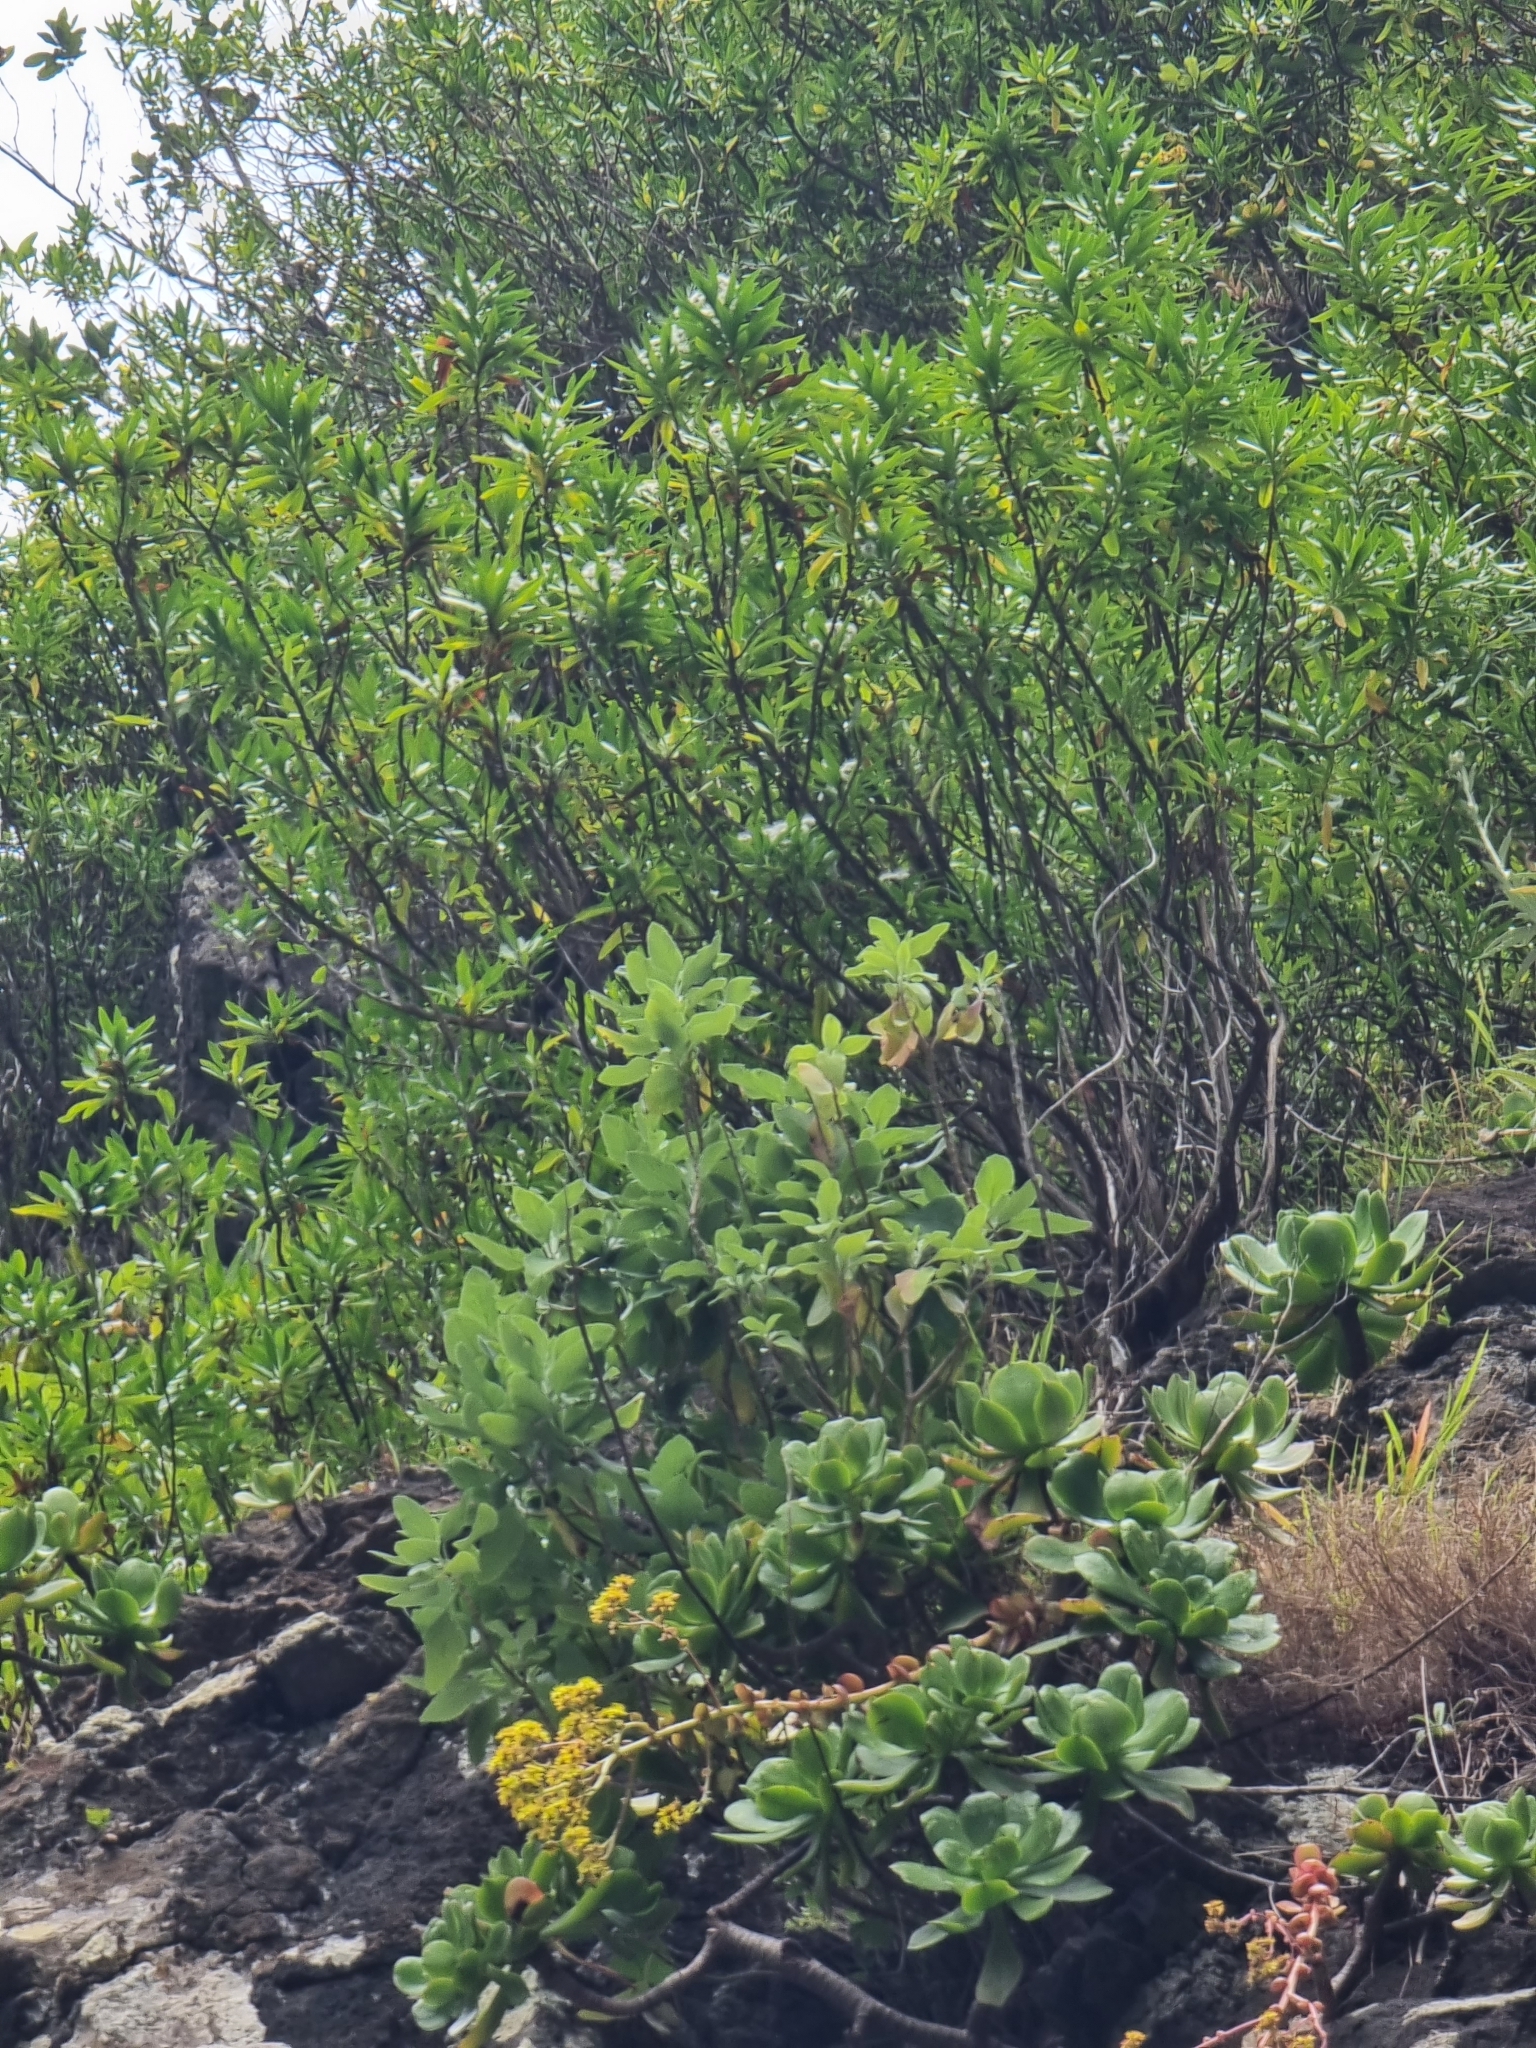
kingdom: Plantae
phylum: Tracheophyta
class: Magnoliopsida
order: Lamiales
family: Lamiaceae
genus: Teucrium
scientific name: Teucrium betonicum
